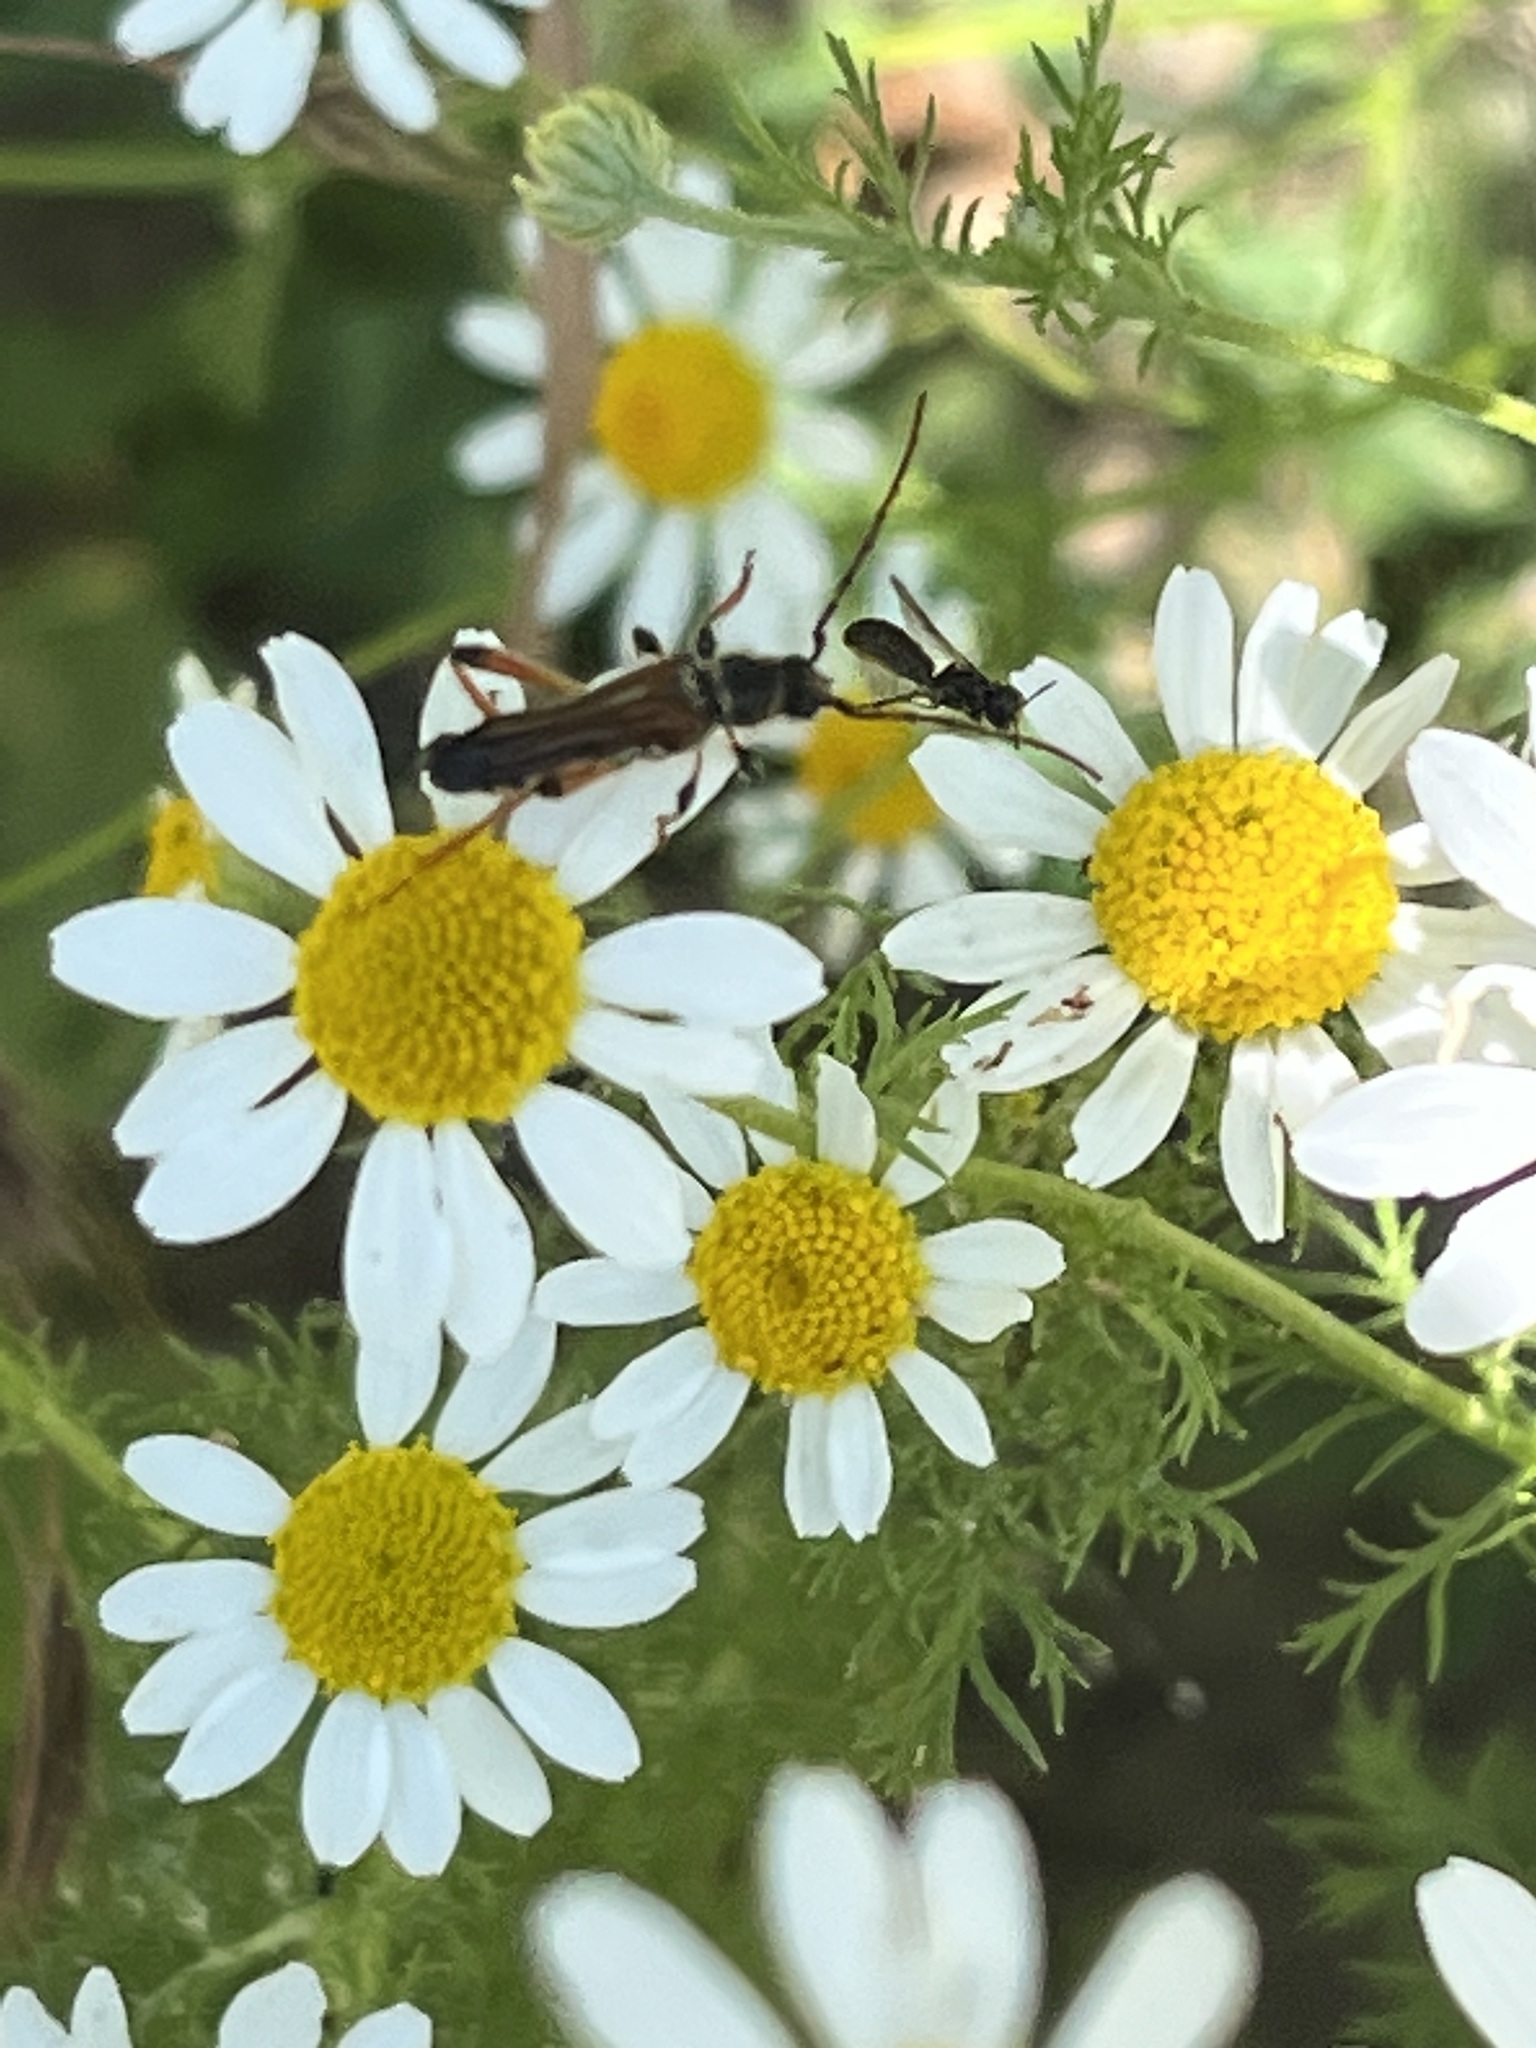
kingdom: Animalia
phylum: Arthropoda
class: Insecta
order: Coleoptera
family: Cerambycidae
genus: Stenopterus
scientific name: Stenopterus rufus
